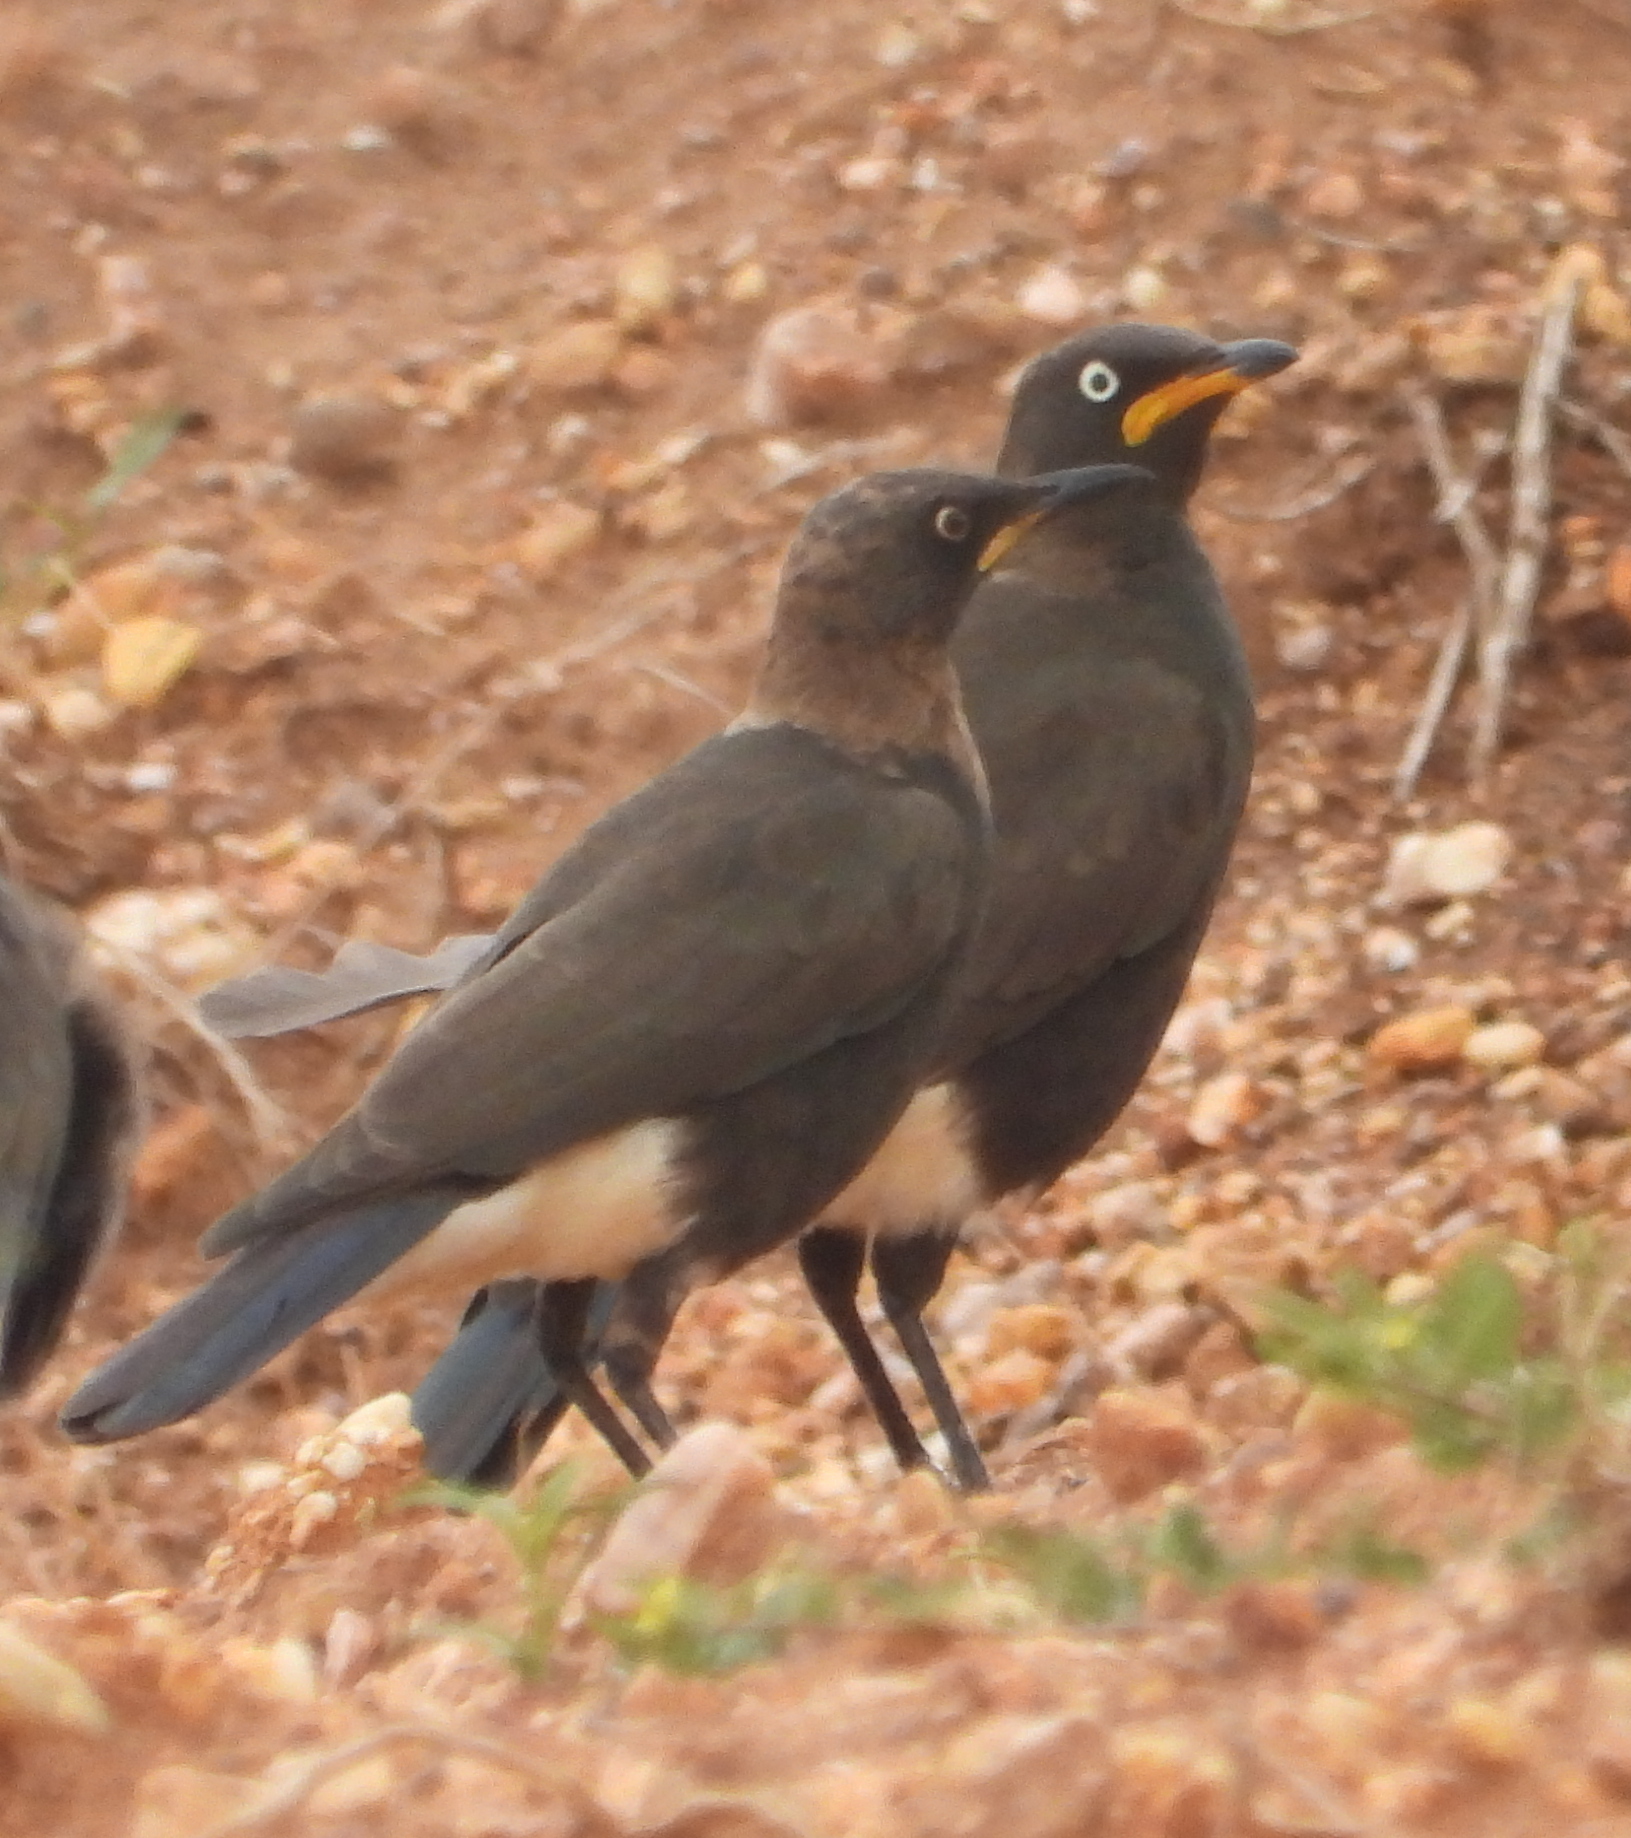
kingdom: Animalia
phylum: Chordata
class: Aves
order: Passeriformes
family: Sturnidae
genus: Lamprotornis
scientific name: Lamprotornis bicolor
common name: Pied starling
